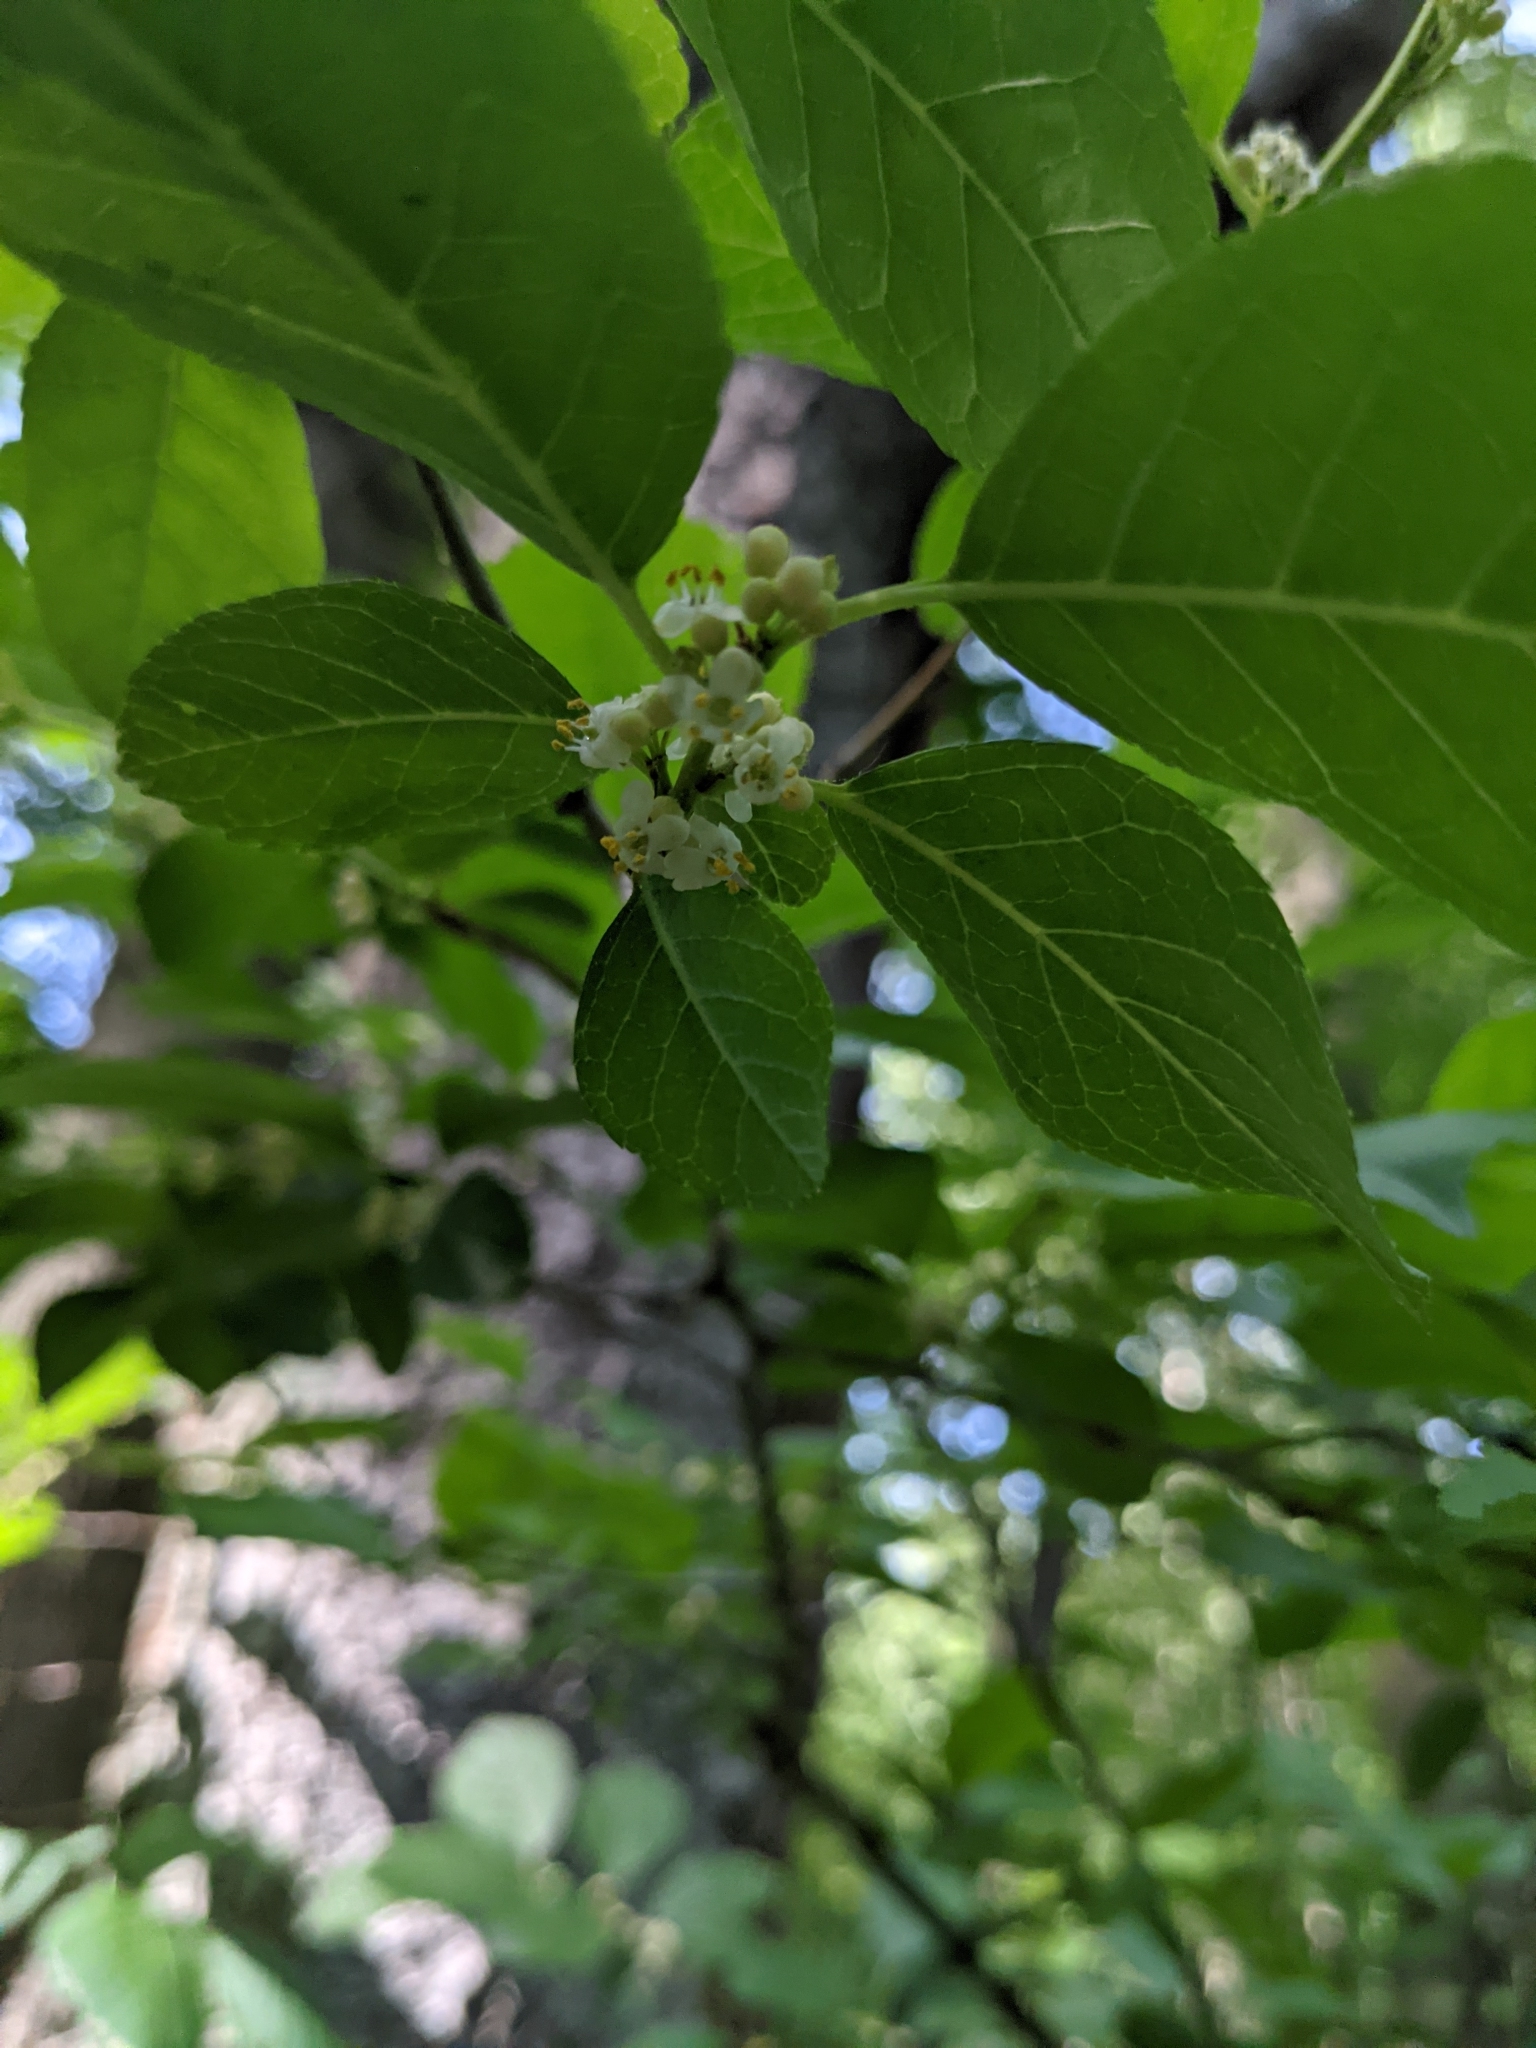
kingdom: Plantae
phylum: Tracheophyta
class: Magnoliopsida
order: Aquifoliales
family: Aquifoliaceae
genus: Ilex
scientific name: Ilex verticillata
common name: Virginia winterberry
